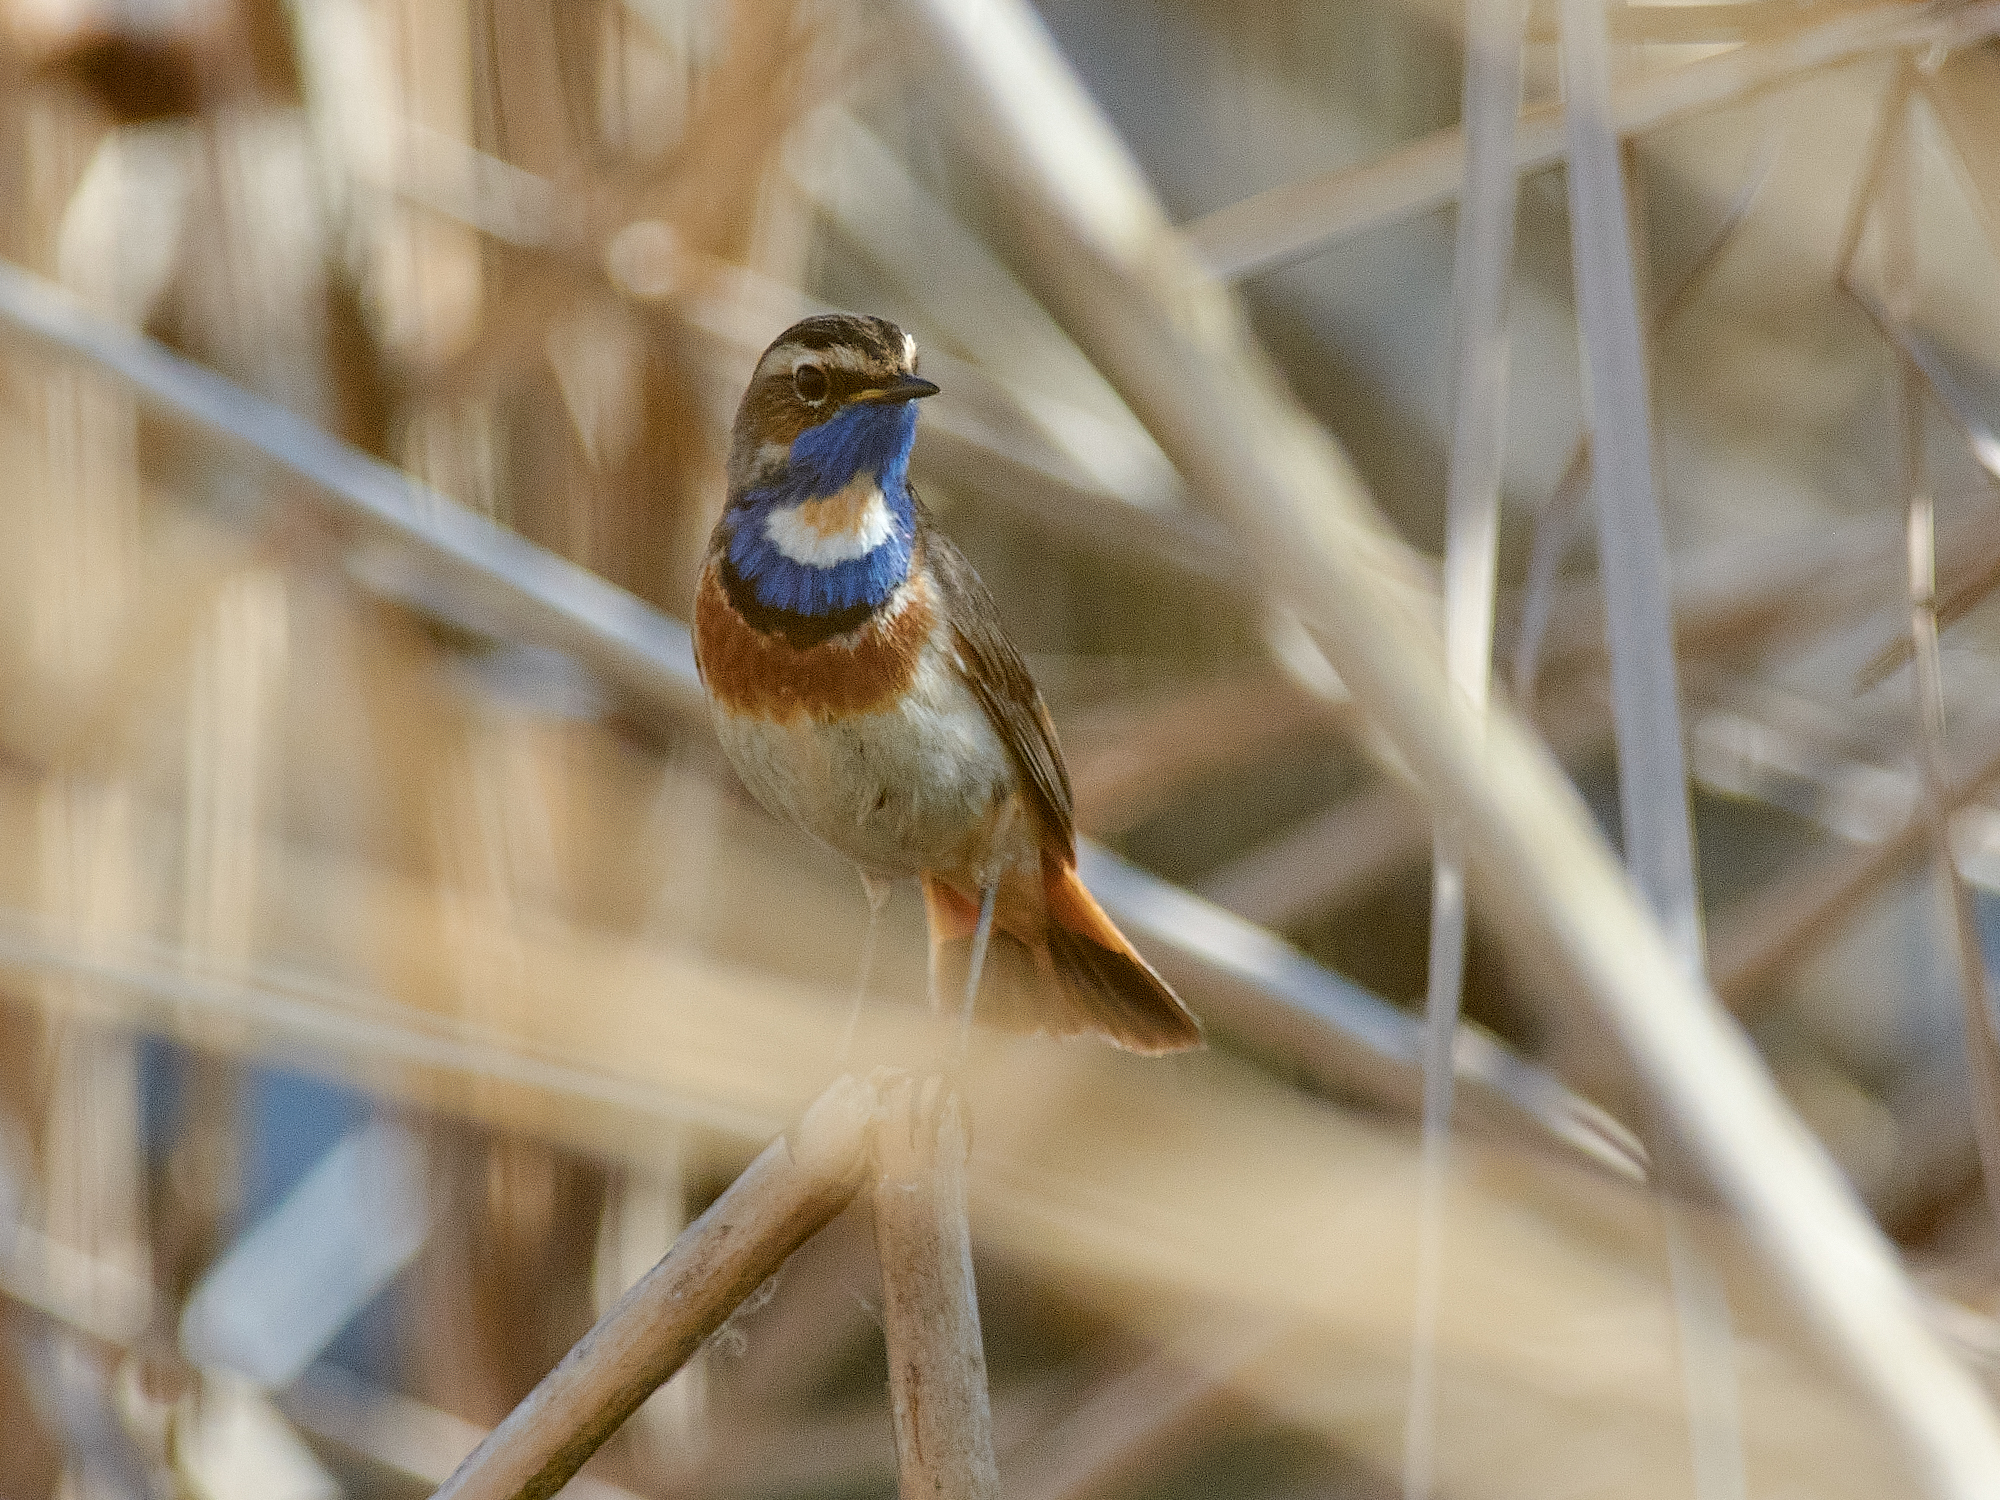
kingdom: Animalia
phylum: Chordata
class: Aves
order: Passeriformes
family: Muscicapidae
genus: Luscinia
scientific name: Luscinia svecica
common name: Bluethroat
